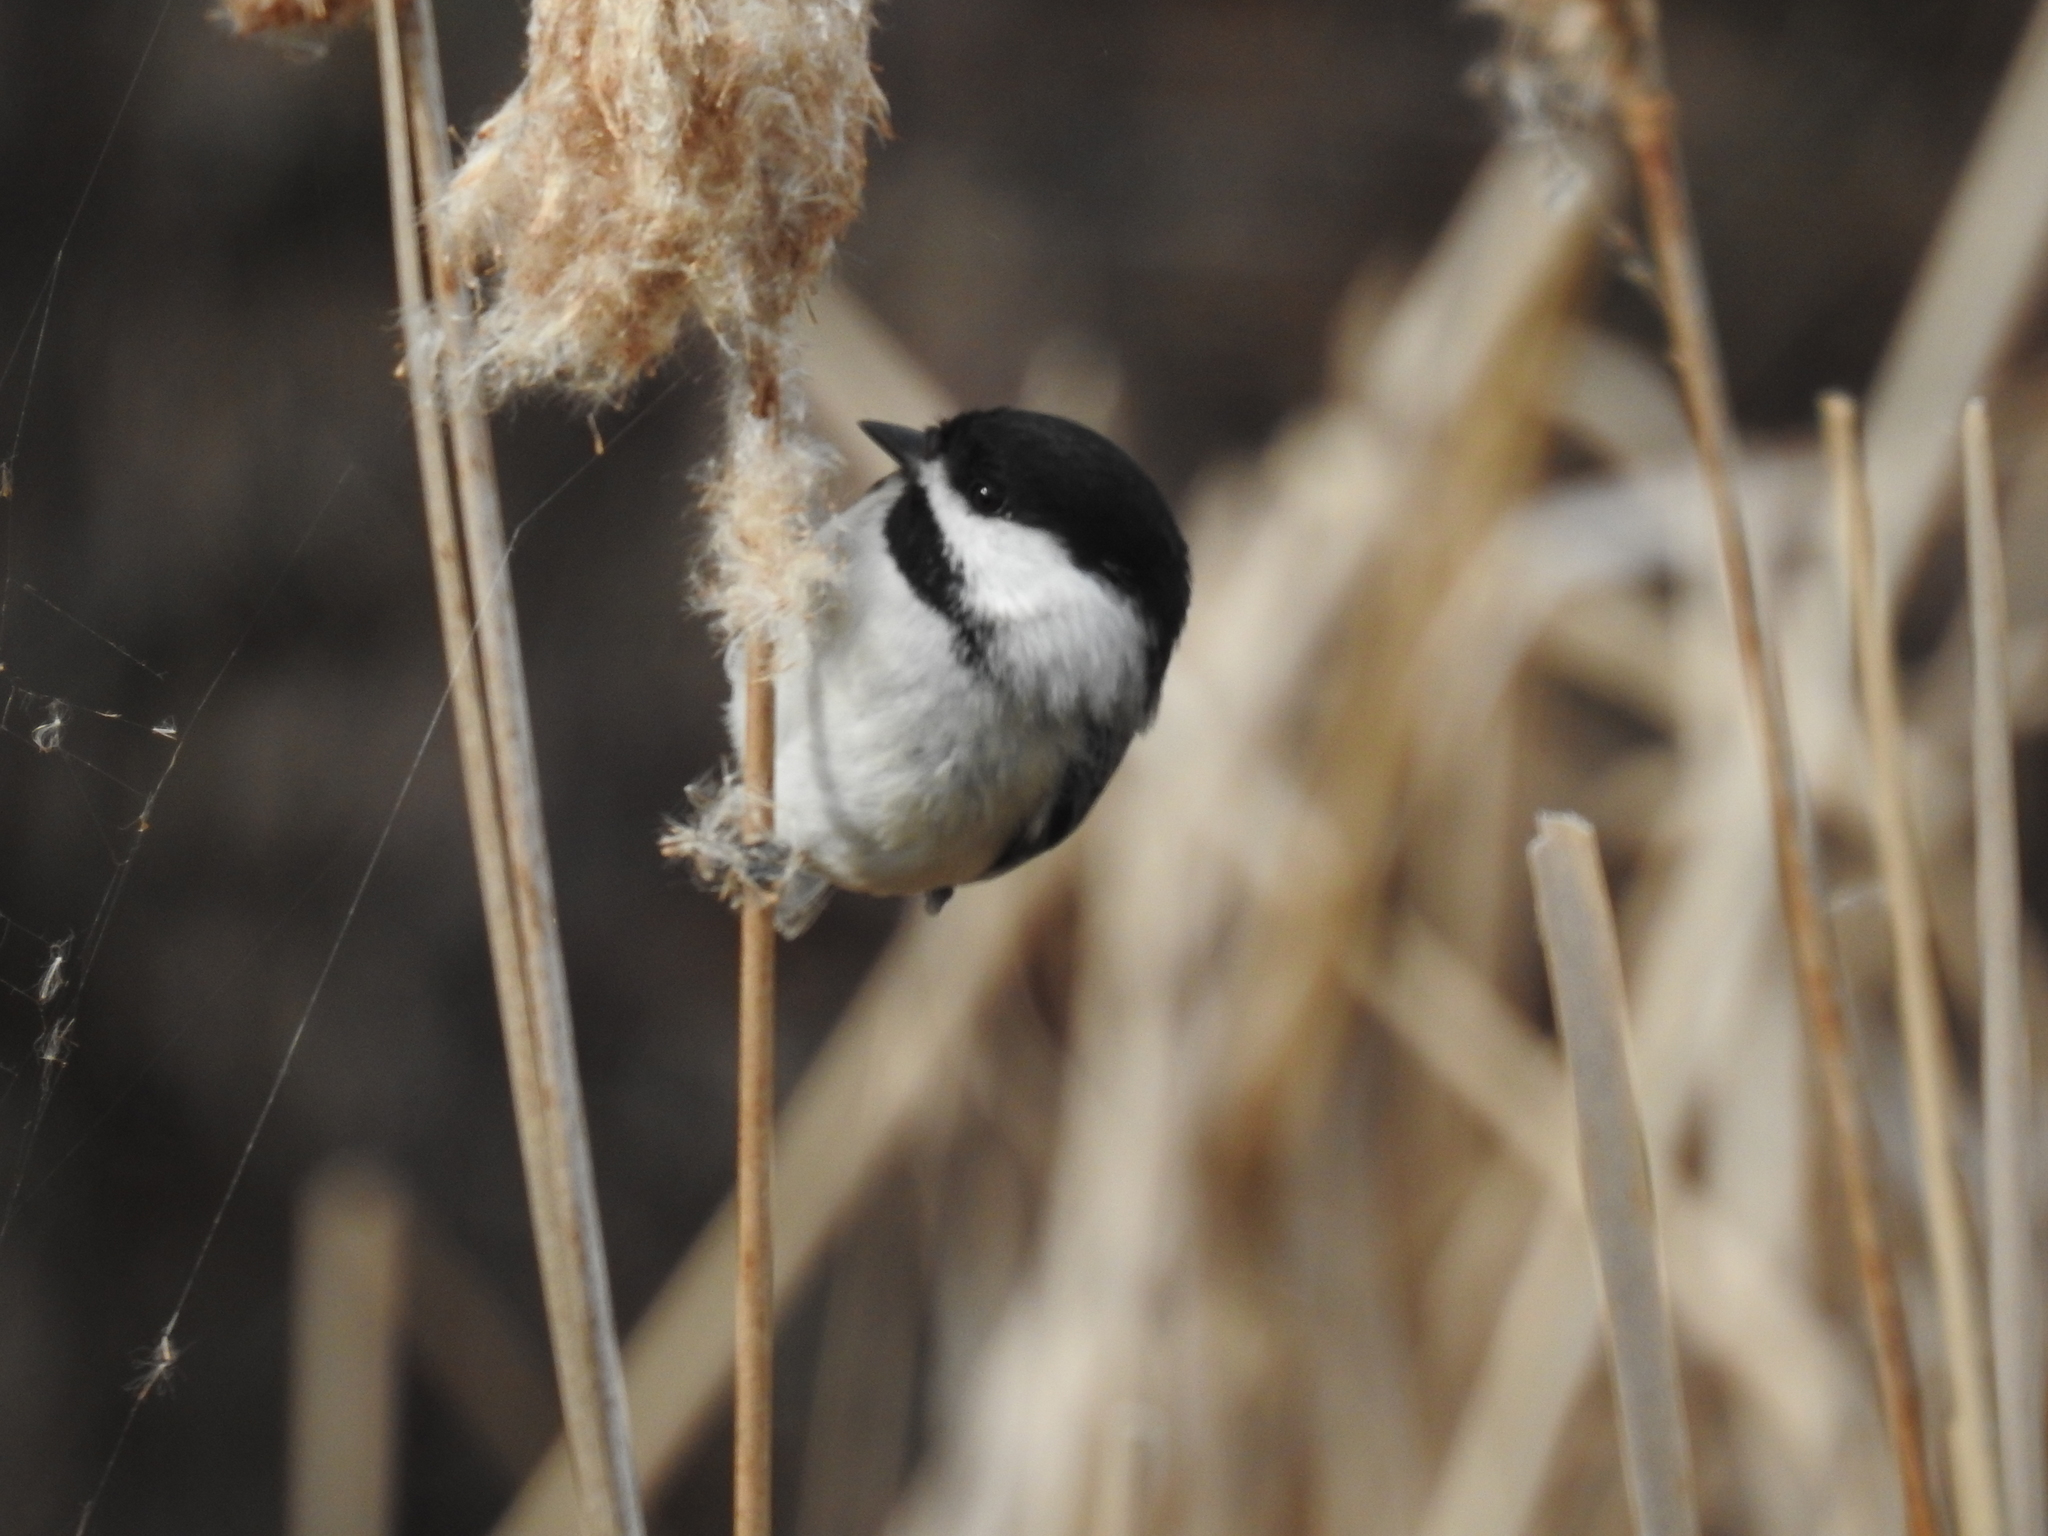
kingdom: Animalia
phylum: Chordata
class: Aves
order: Passeriformes
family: Paridae
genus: Poecile
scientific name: Poecile atricapillus
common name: Black-capped chickadee
